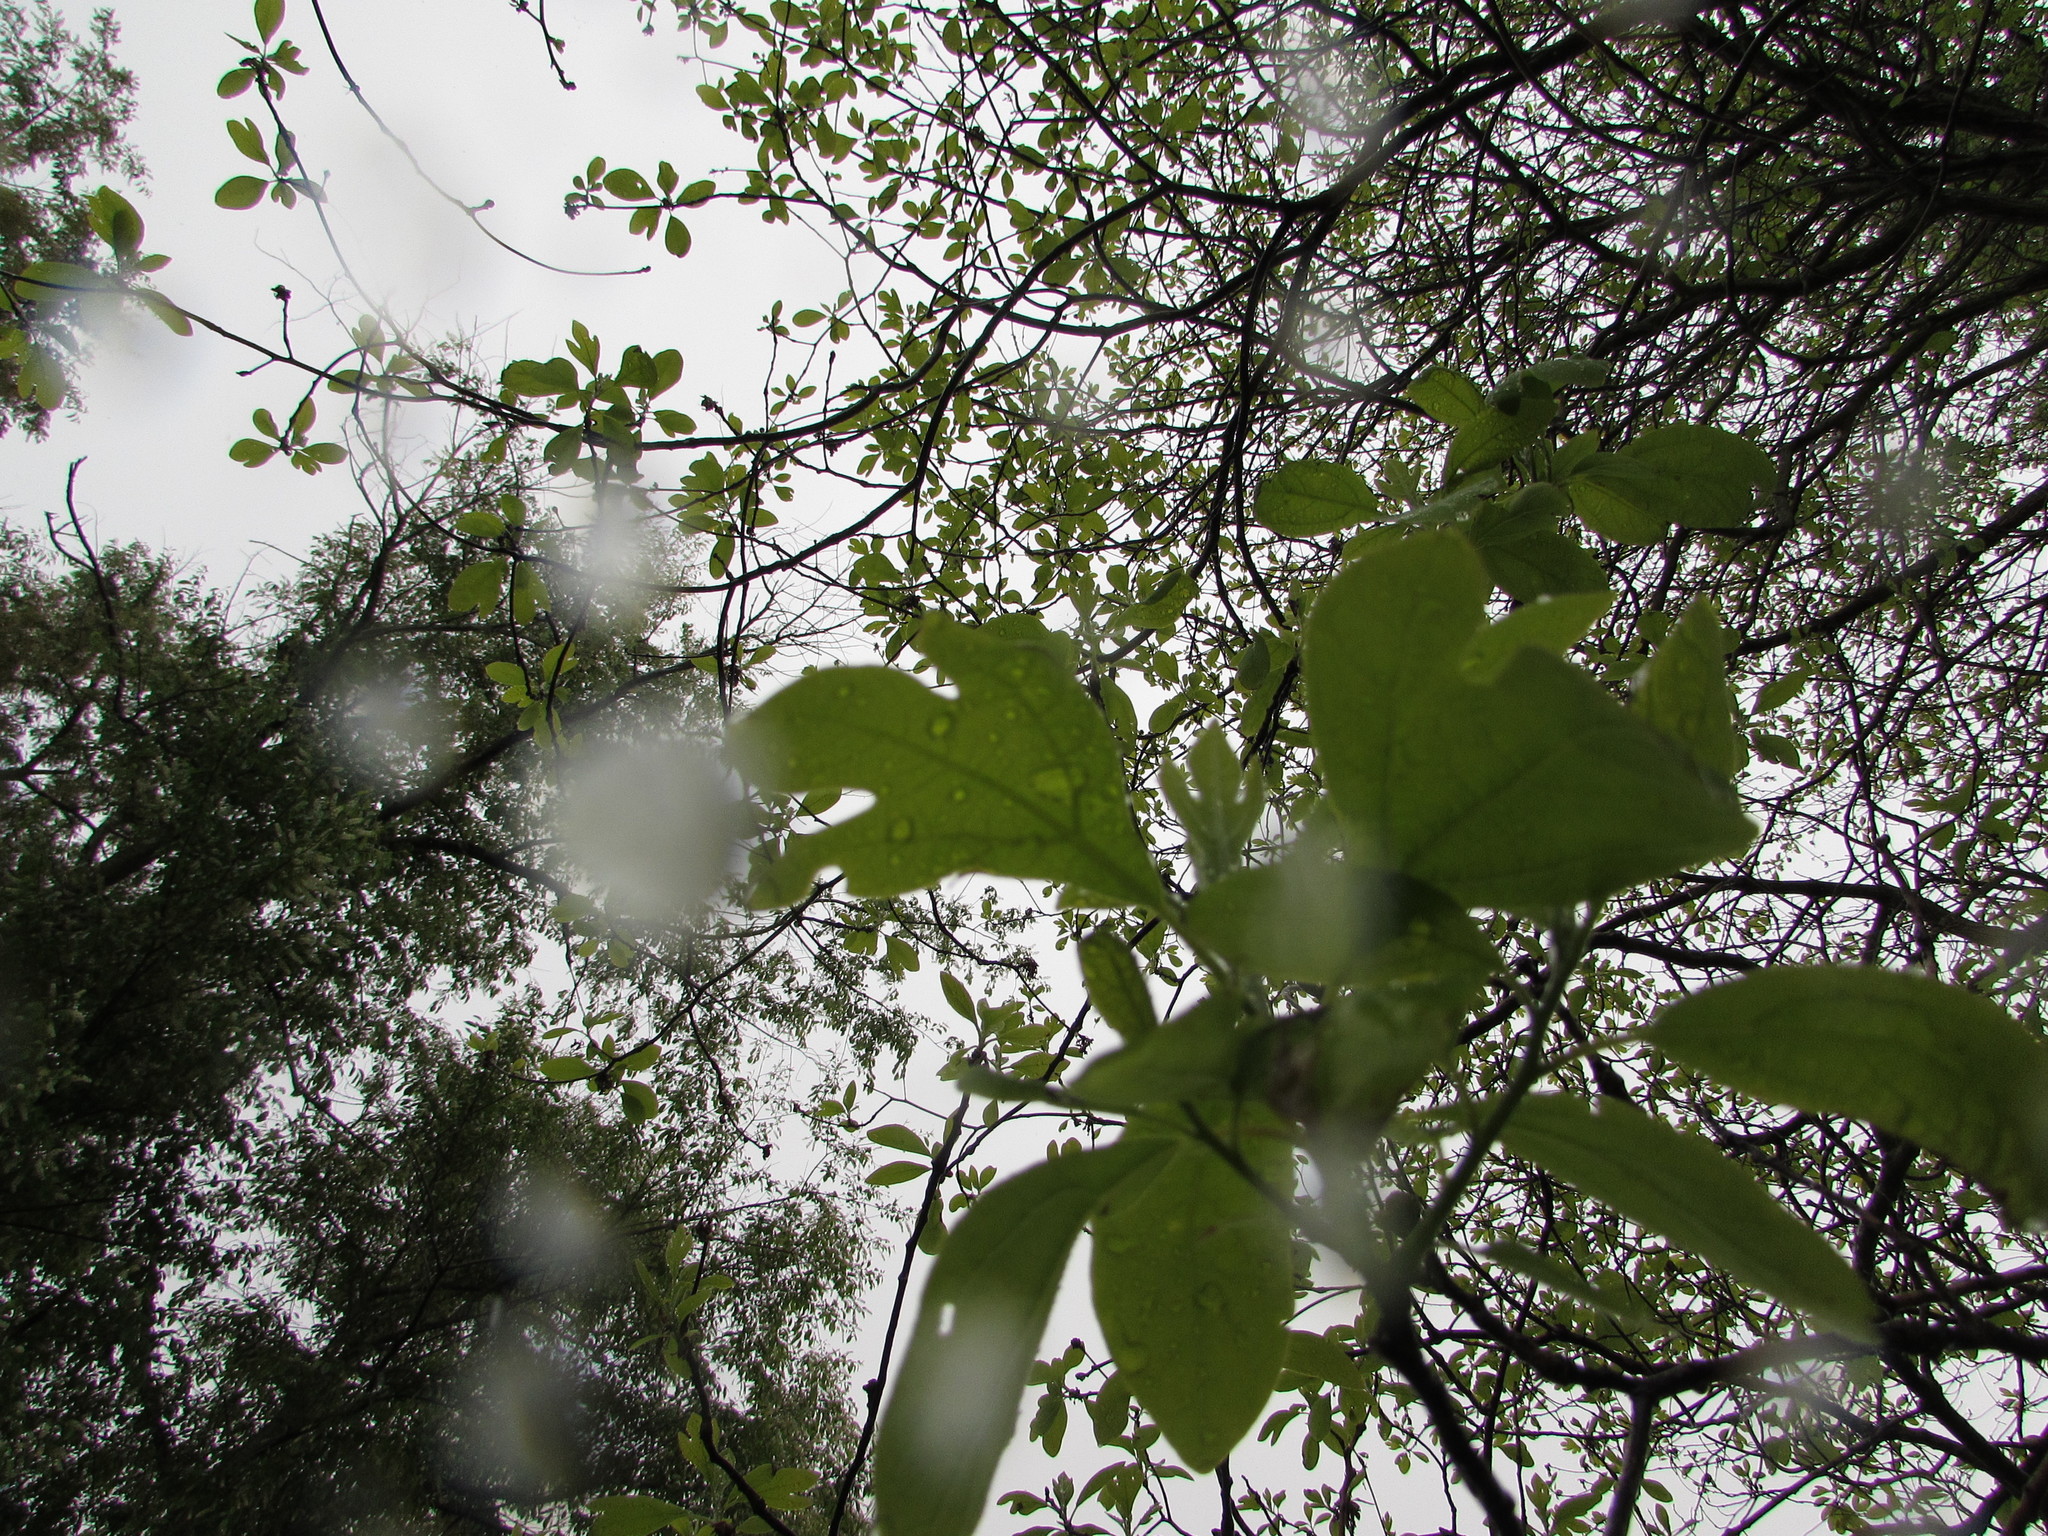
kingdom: Plantae
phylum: Tracheophyta
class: Magnoliopsida
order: Laurales
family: Lauraceae
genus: Sassafras
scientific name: Sassafras albidum
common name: Sassafras
